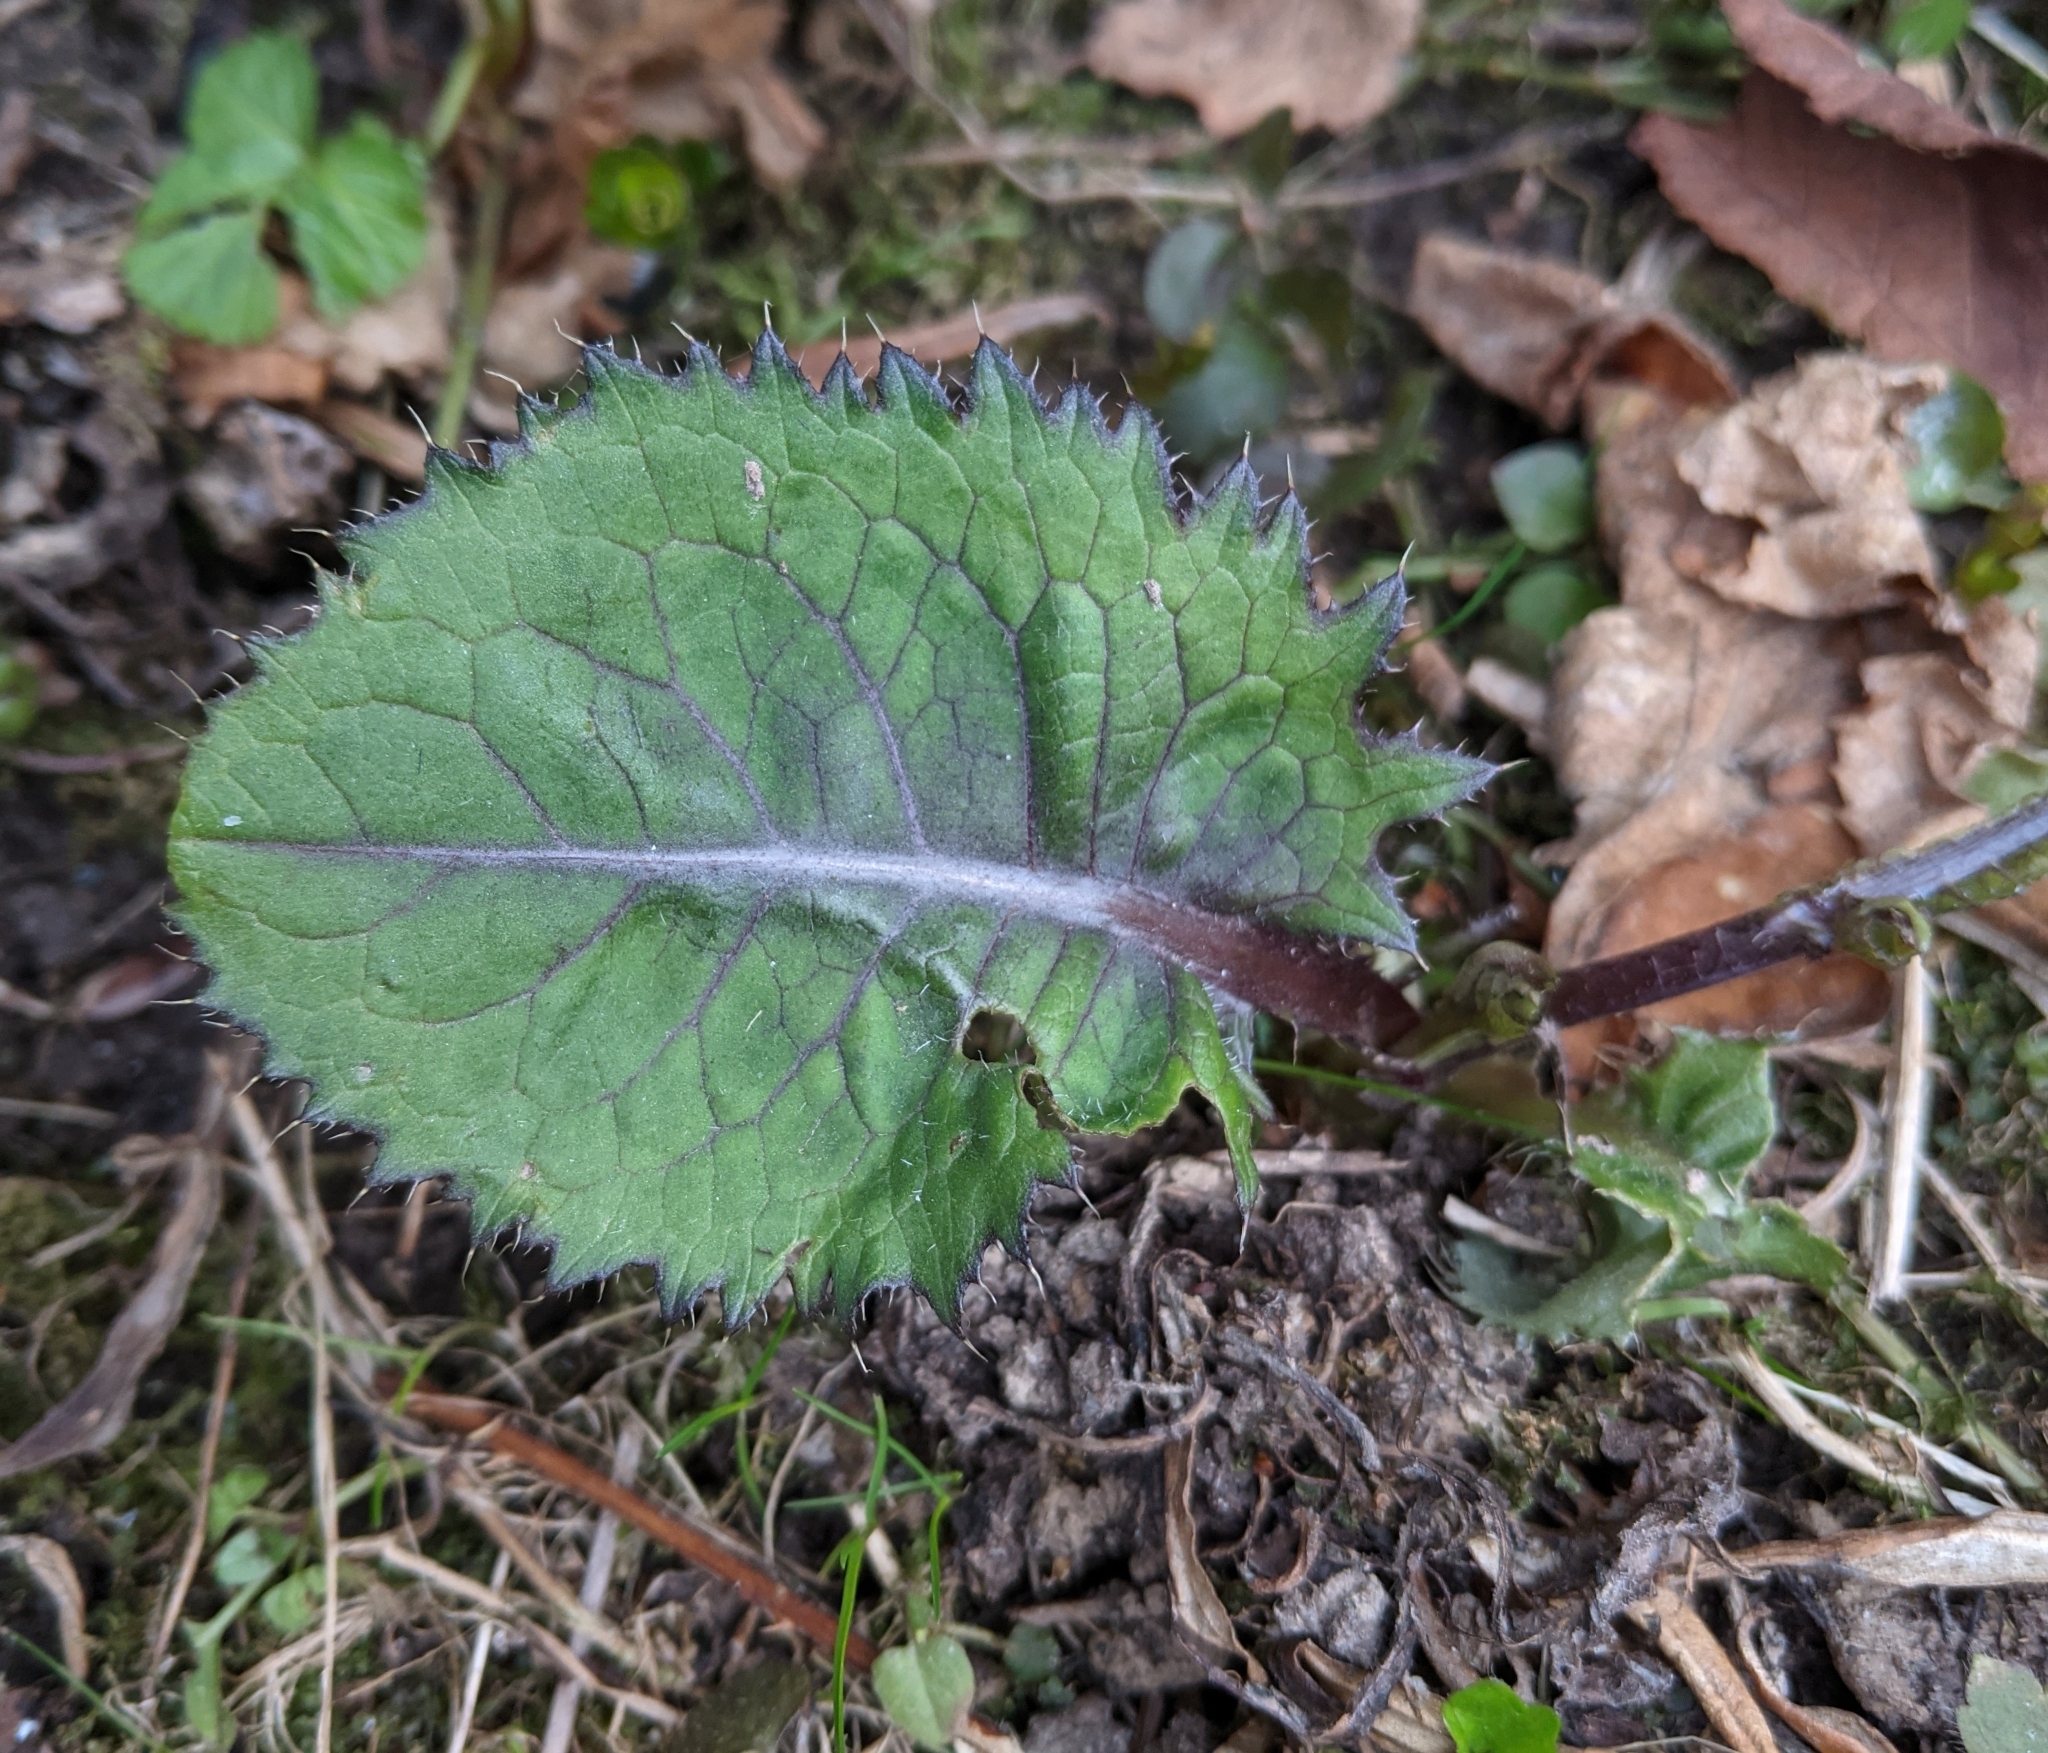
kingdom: Plantae
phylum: Tracheophyta
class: Magnoliopsida
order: Asterales
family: Asteraceae
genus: Cirsium
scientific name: Cirsium oleraceum
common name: Cabbage thistle
